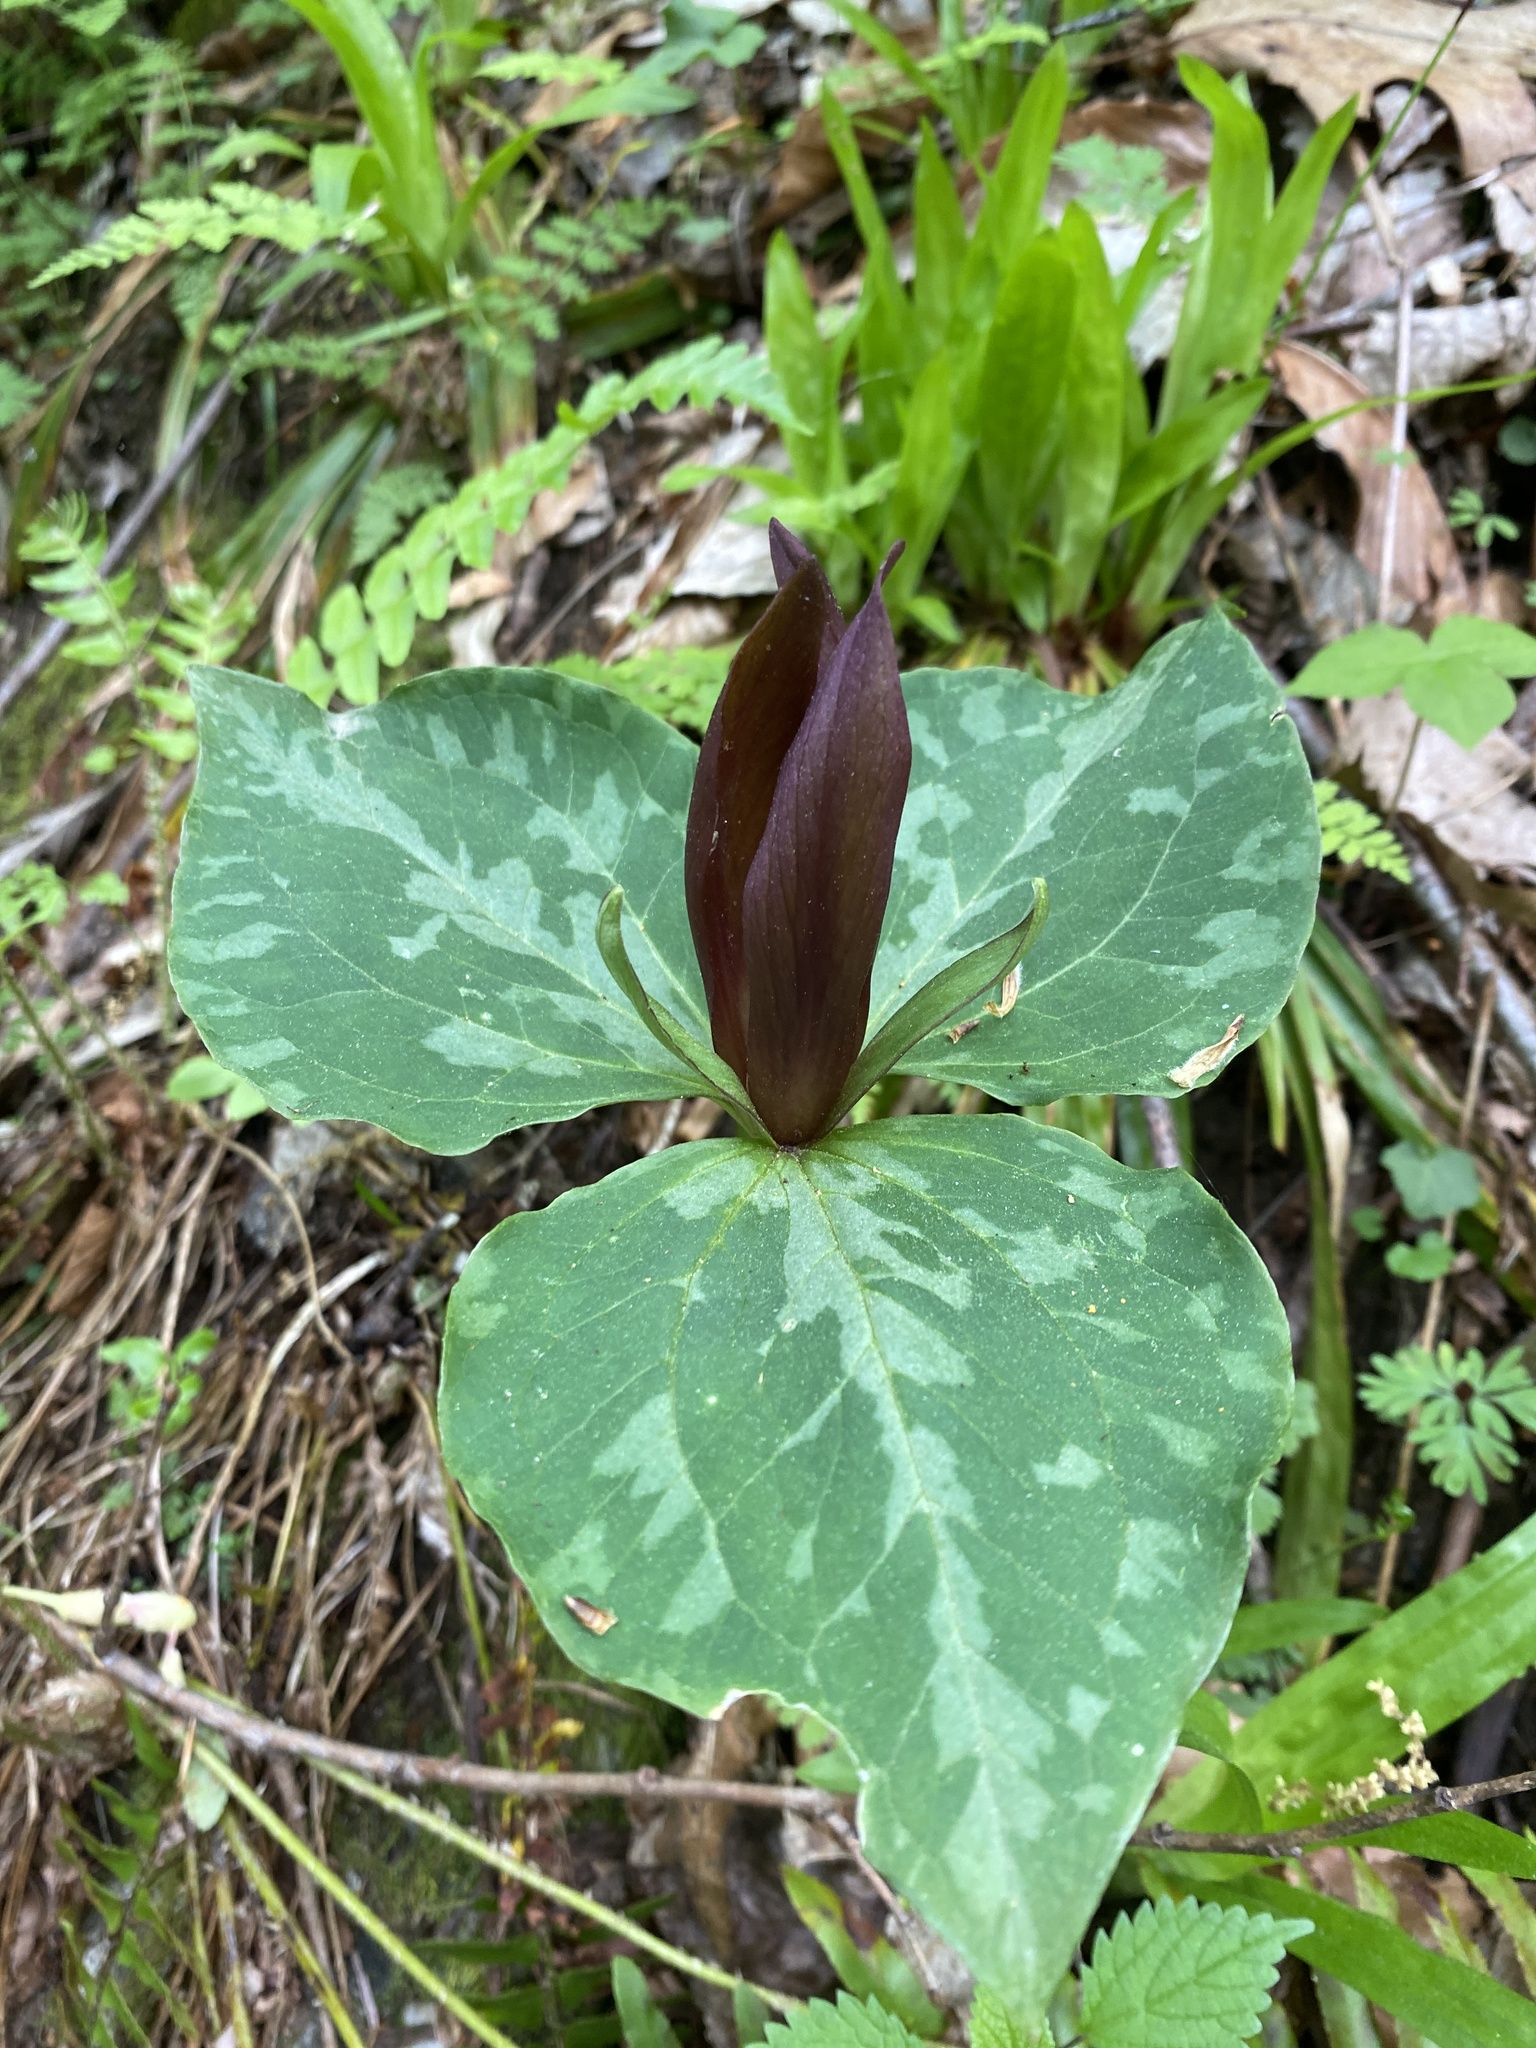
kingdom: Plantae
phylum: Tracheophyta
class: Liliopsida
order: Liliales
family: Melanthiaceae
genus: Trillium
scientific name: Trillium cuneatum
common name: Cuneate trillium
